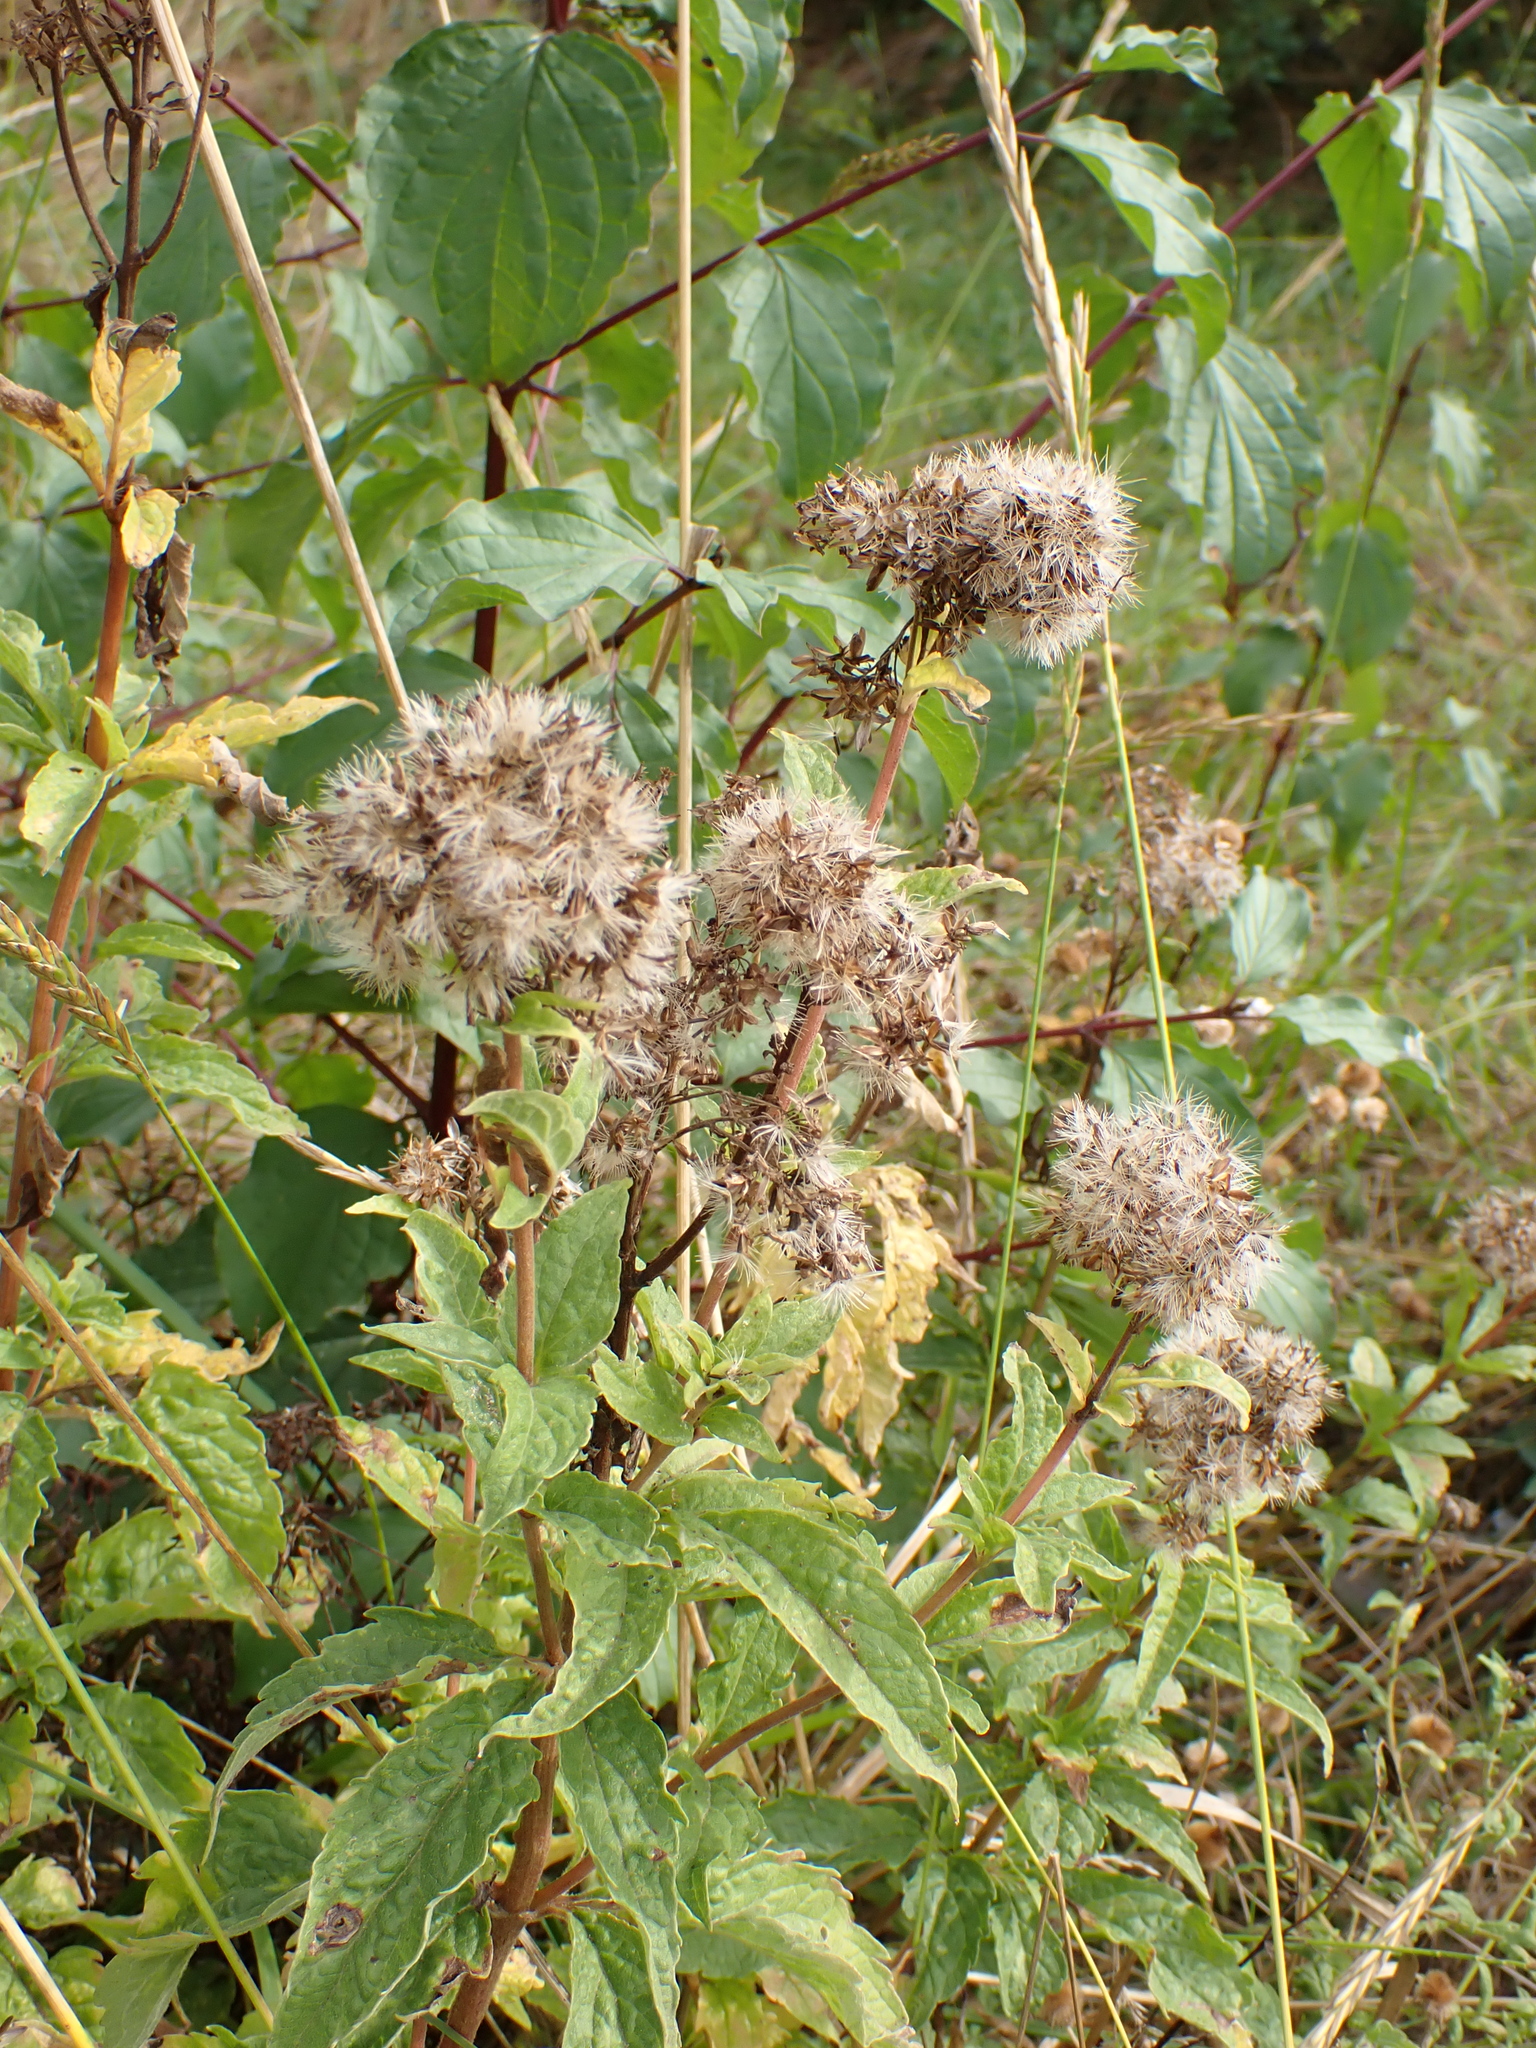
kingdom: Plantae
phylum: Tracheophyta
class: Magnoliopsida
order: Asterales
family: Asteraceae
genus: Eupatorium
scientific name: Eupatorium cannabinum
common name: Hemp-agrimony
